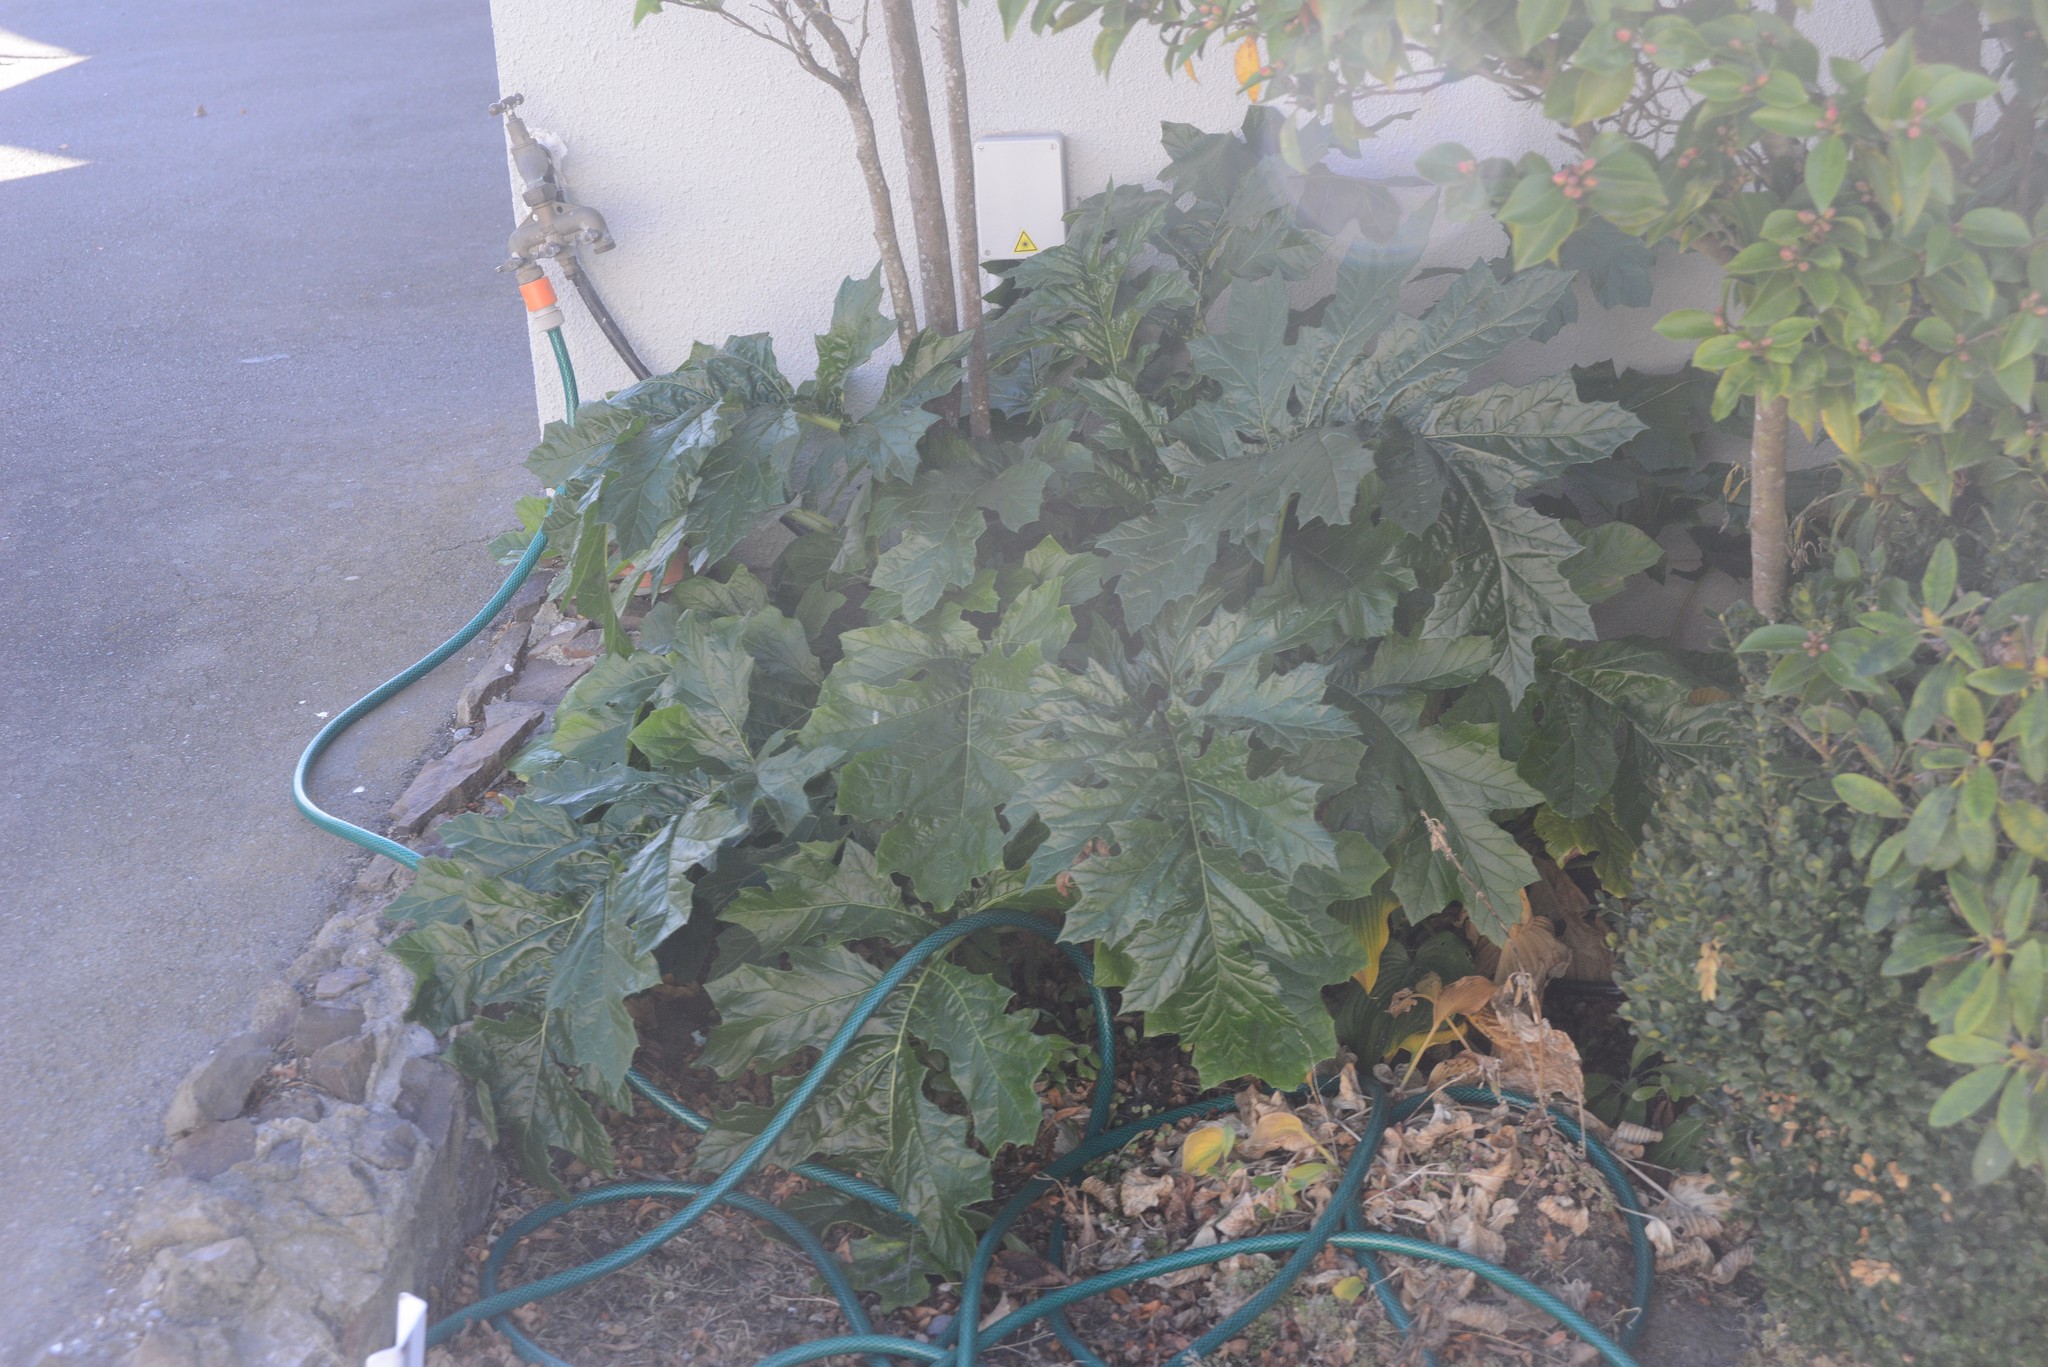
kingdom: Plantae
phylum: Tracheophyta
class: Magnoliopsida
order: Lamiales
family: Acanthaceae
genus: Acanthus
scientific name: Acanthus mollis
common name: Bear's-breech
